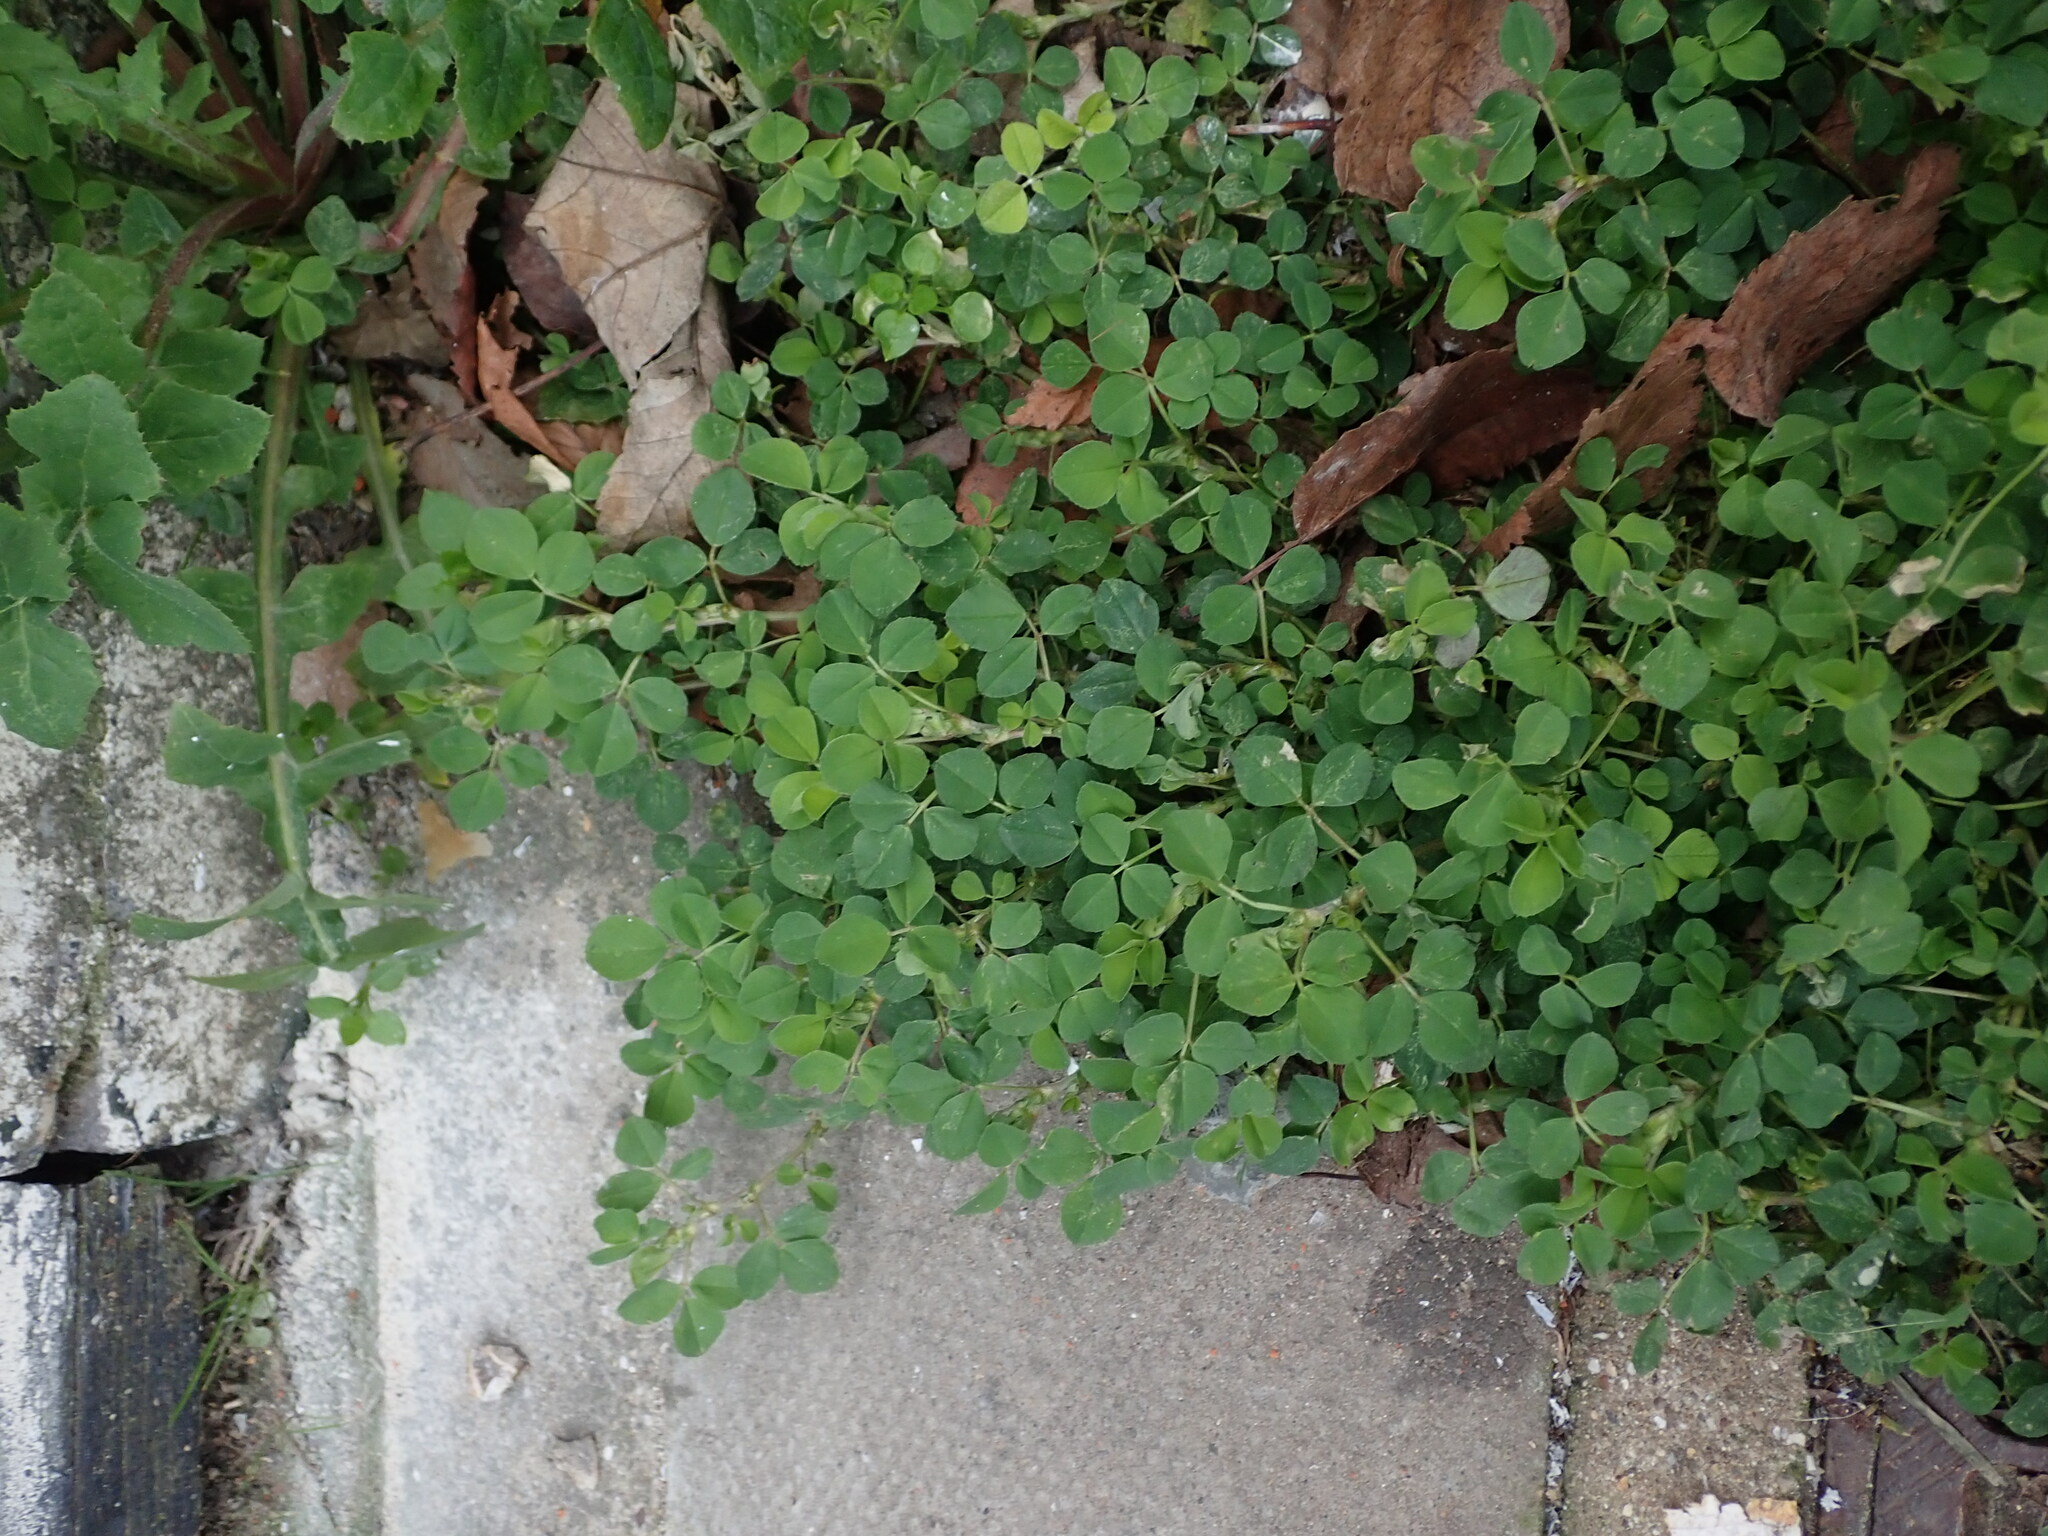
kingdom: Plantae
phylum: Tracheophyta
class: Magnoliopsida
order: Fabales
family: Fabaceae
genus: Medicago
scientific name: Medicago lupulina
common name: Black medick
